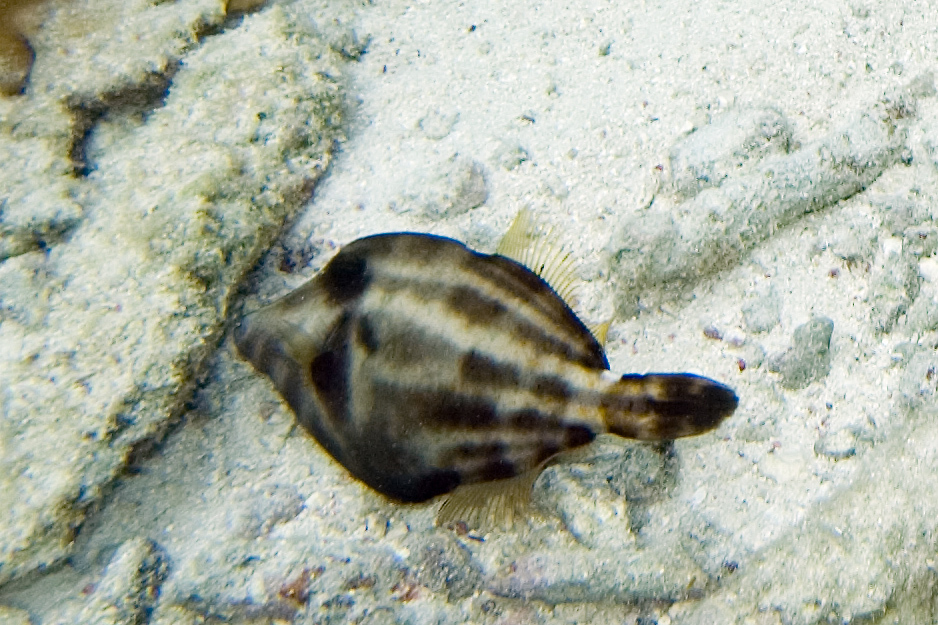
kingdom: Animalia
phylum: Chordata
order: Tetraodontiformes
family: Monacanthidae
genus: Cantherhines
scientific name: Cantherhines pullus
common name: Orangespotted filefish
